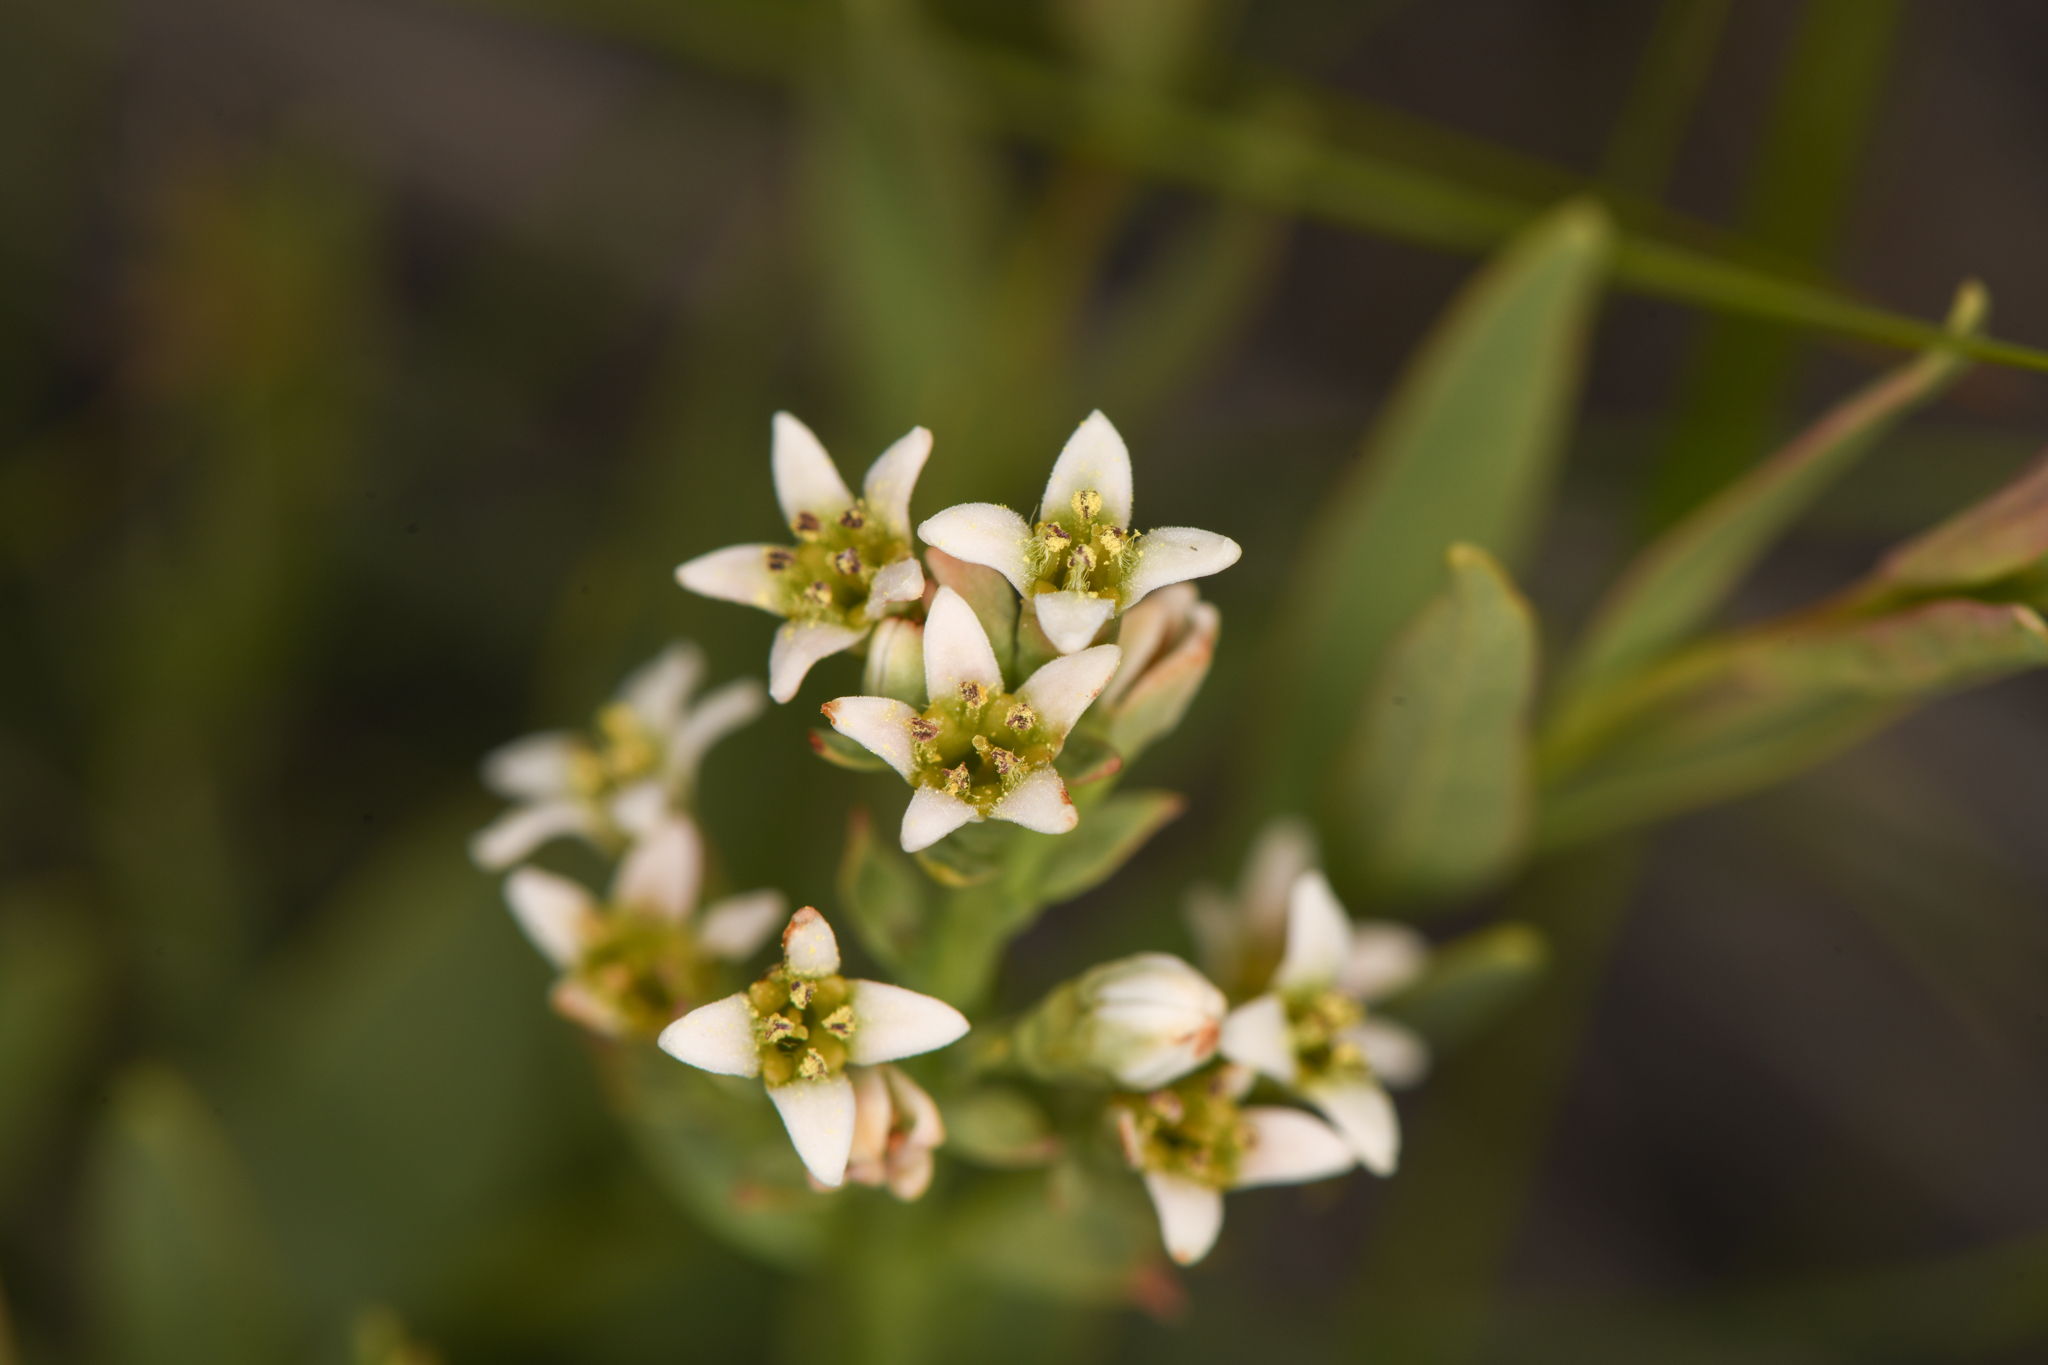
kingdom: Plantae
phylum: Tracheophyta
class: Magnoliopsida
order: Santalales
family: Comandraceae
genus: Comandra
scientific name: Comandra umbellata
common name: Bastard toadflax
